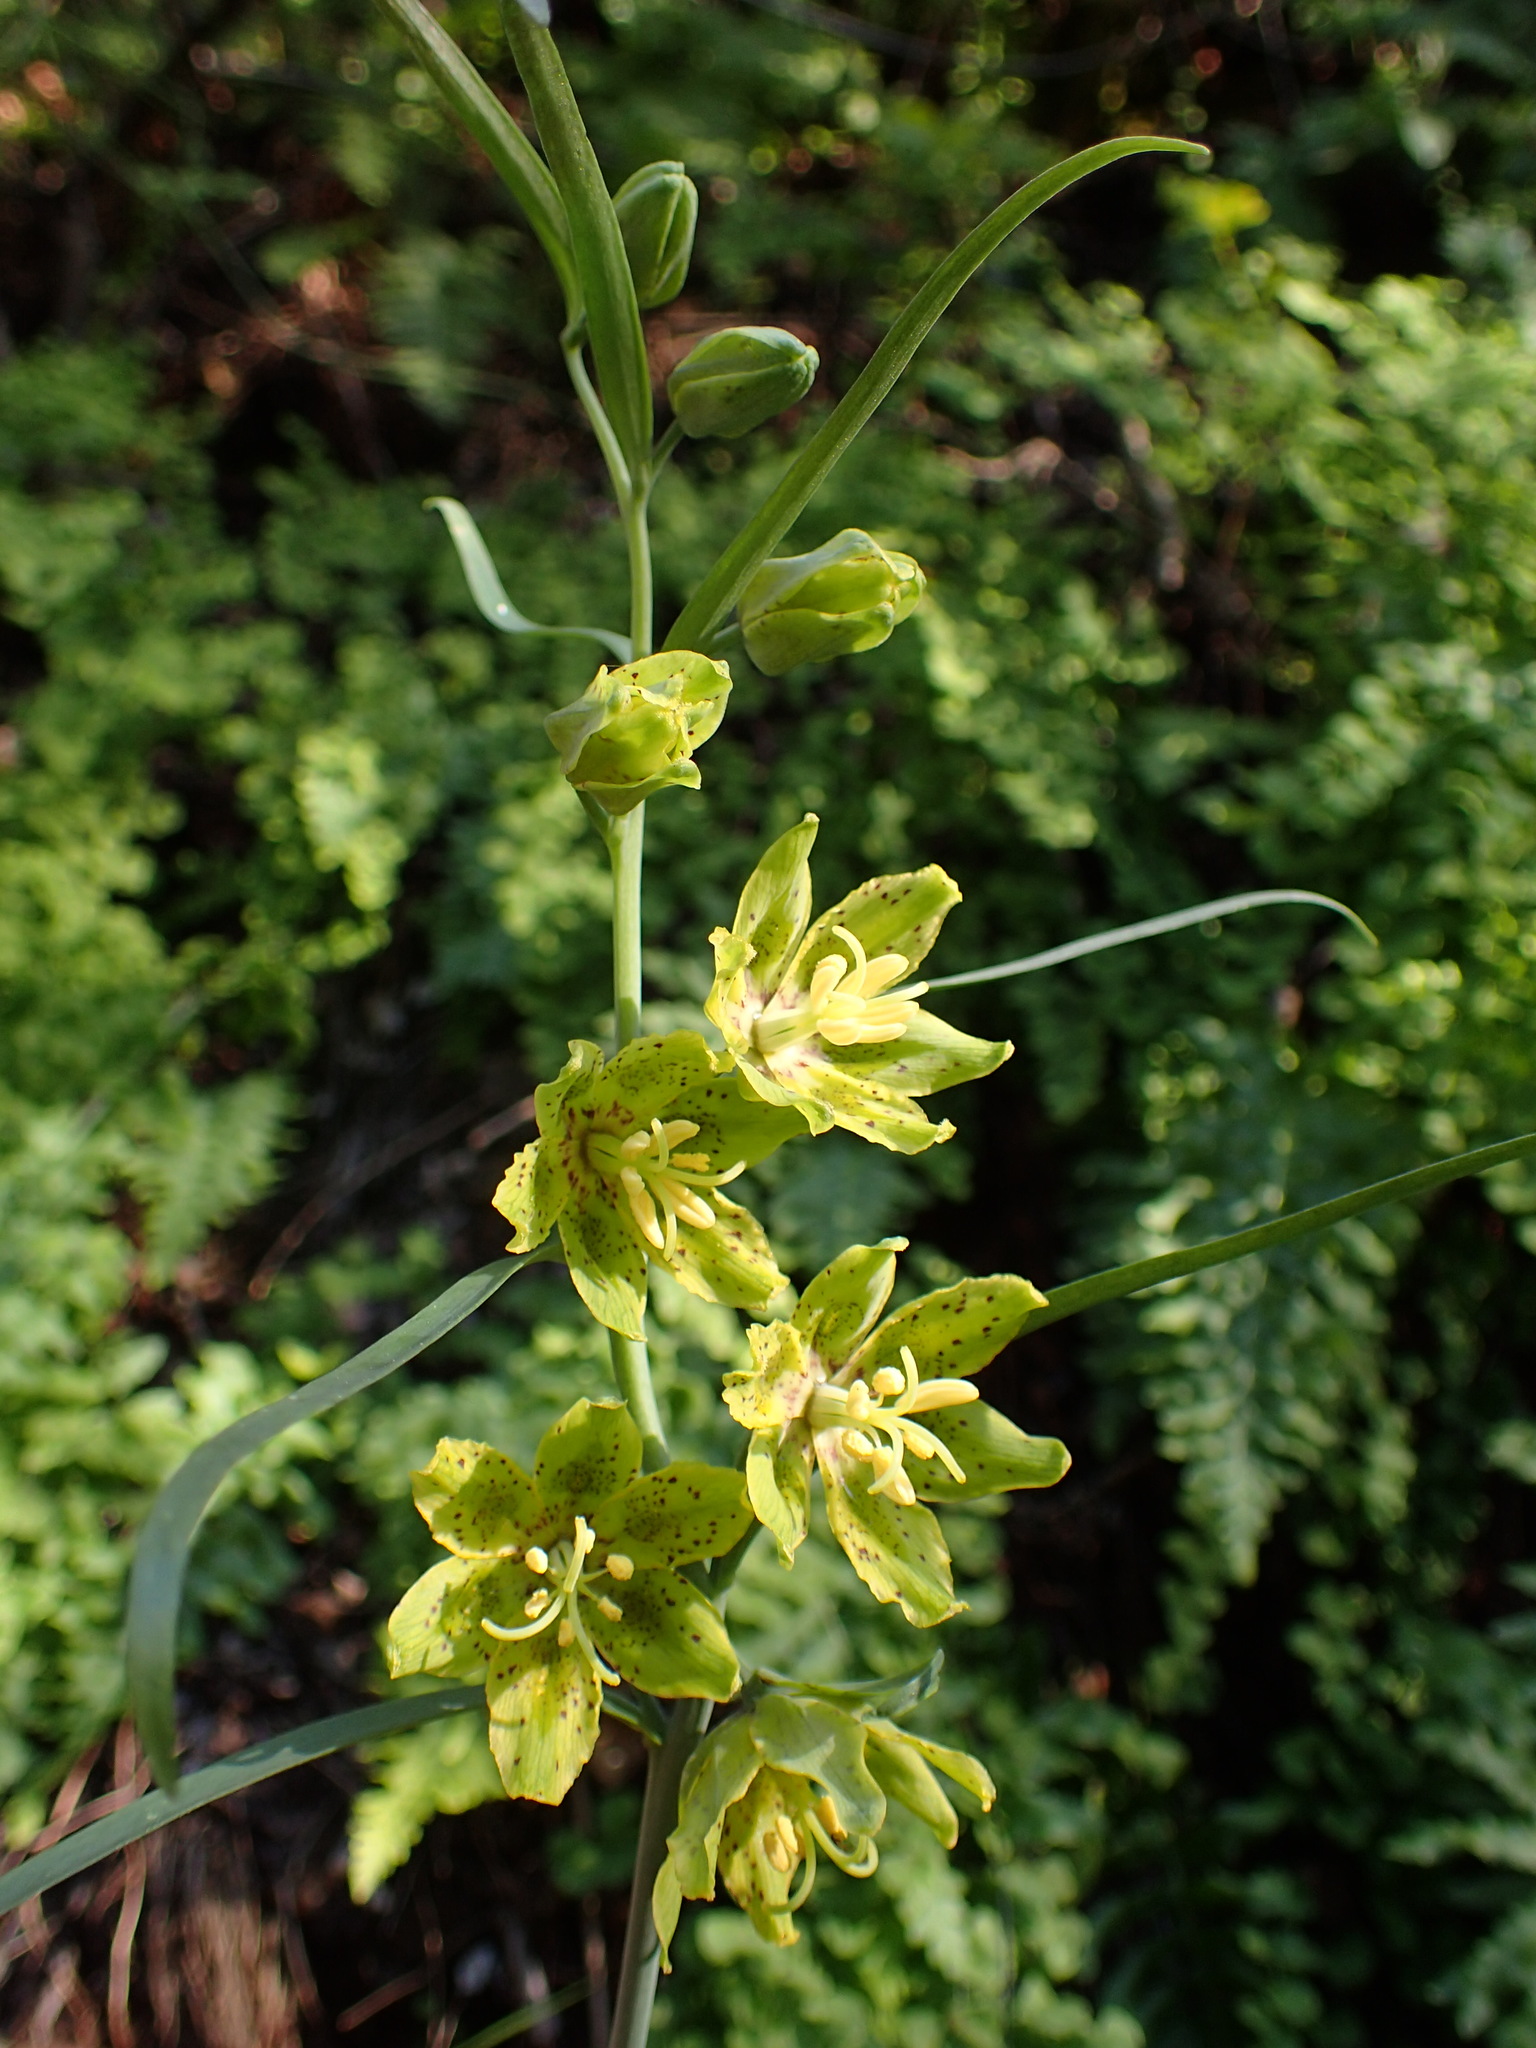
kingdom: Plantae
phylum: Tracheophyta
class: Liliopsida
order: Liliales
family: Liliaceae
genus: Fritillaria
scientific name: Fritillaria ojaiensis
